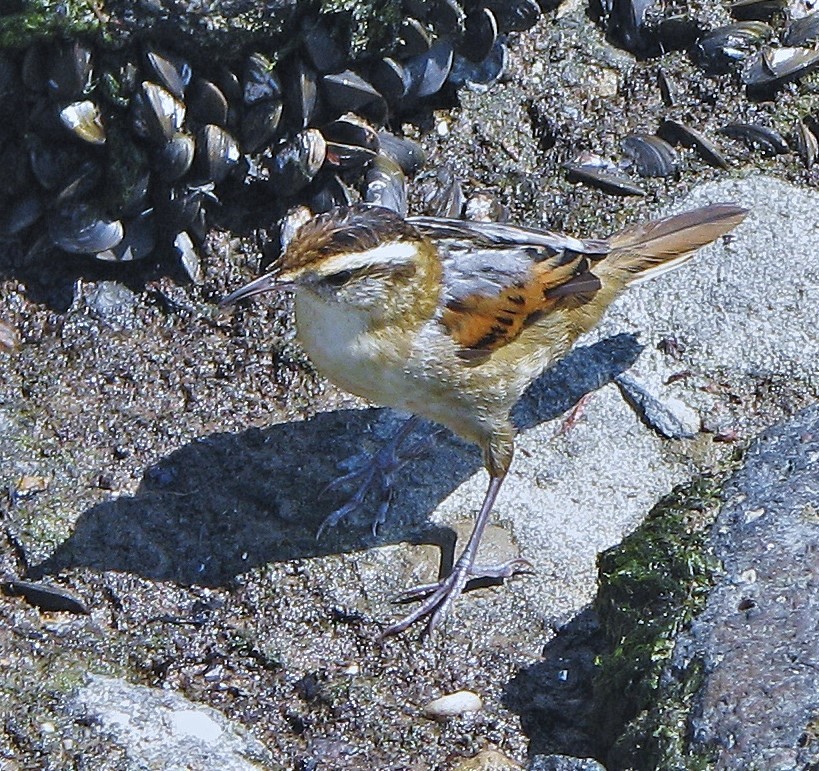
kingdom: Animalia
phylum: Chordata
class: Aves
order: Passeriformes
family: Furnariidae
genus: Phleocryptes
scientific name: Phleocryptes melanops
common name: Wren-like rushbird
